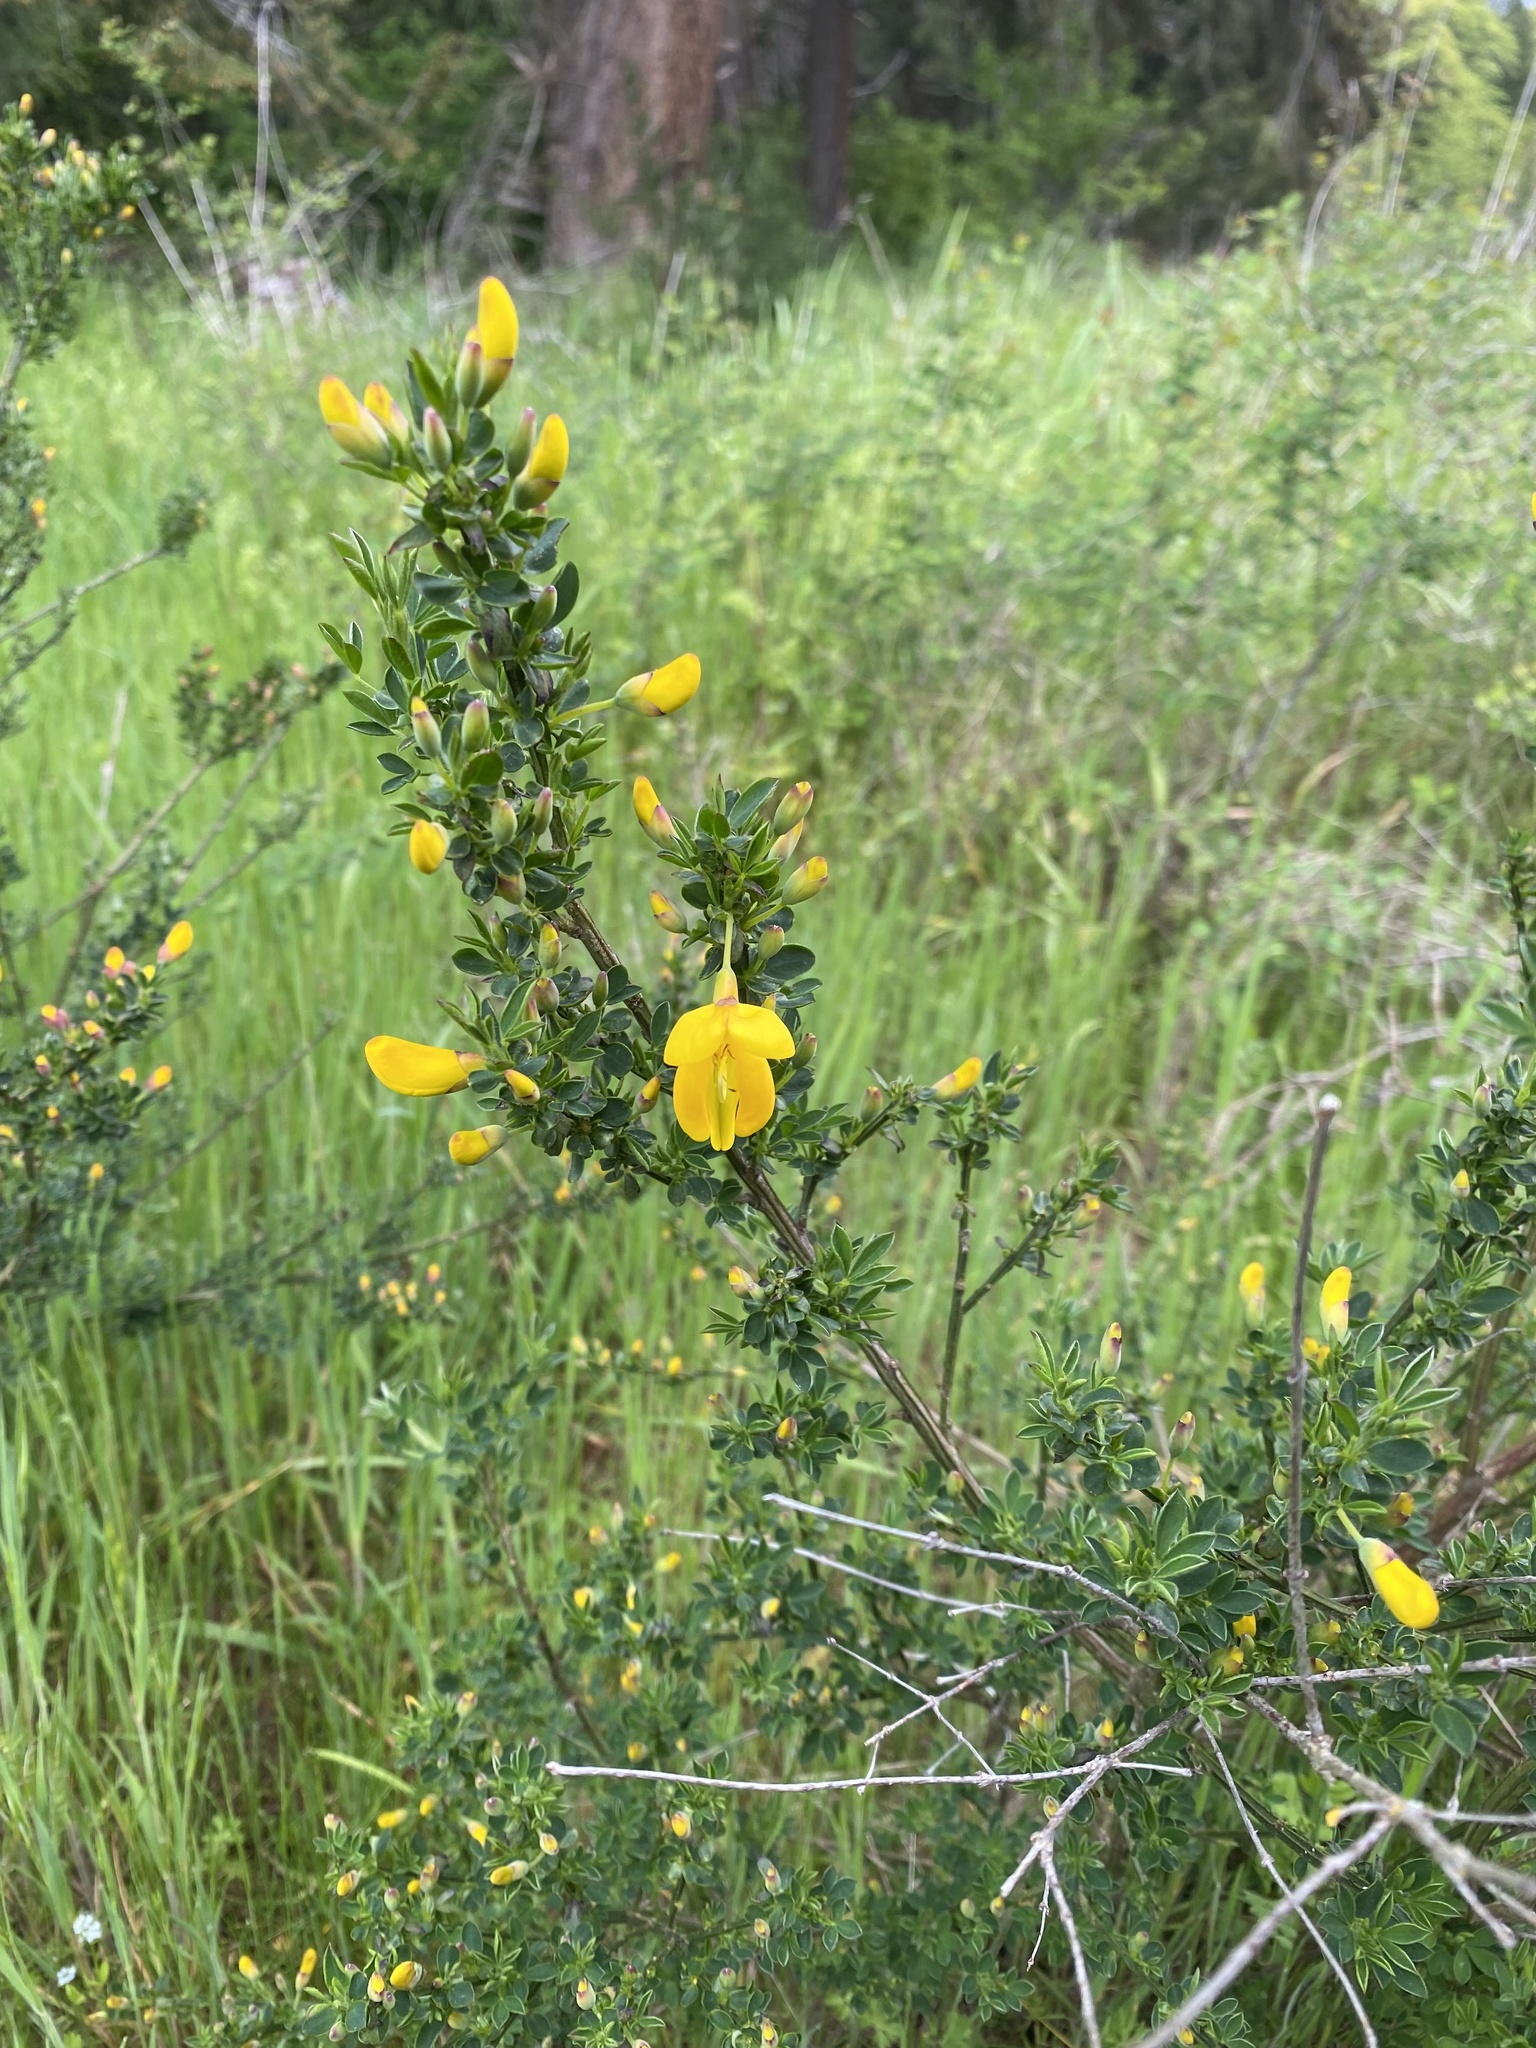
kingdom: Plantae
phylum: Tracheophyta
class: Magnoliopsida
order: Fabales
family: Fabaceae
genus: Cytisus
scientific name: Cytisus scoparius
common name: Scotch broom
